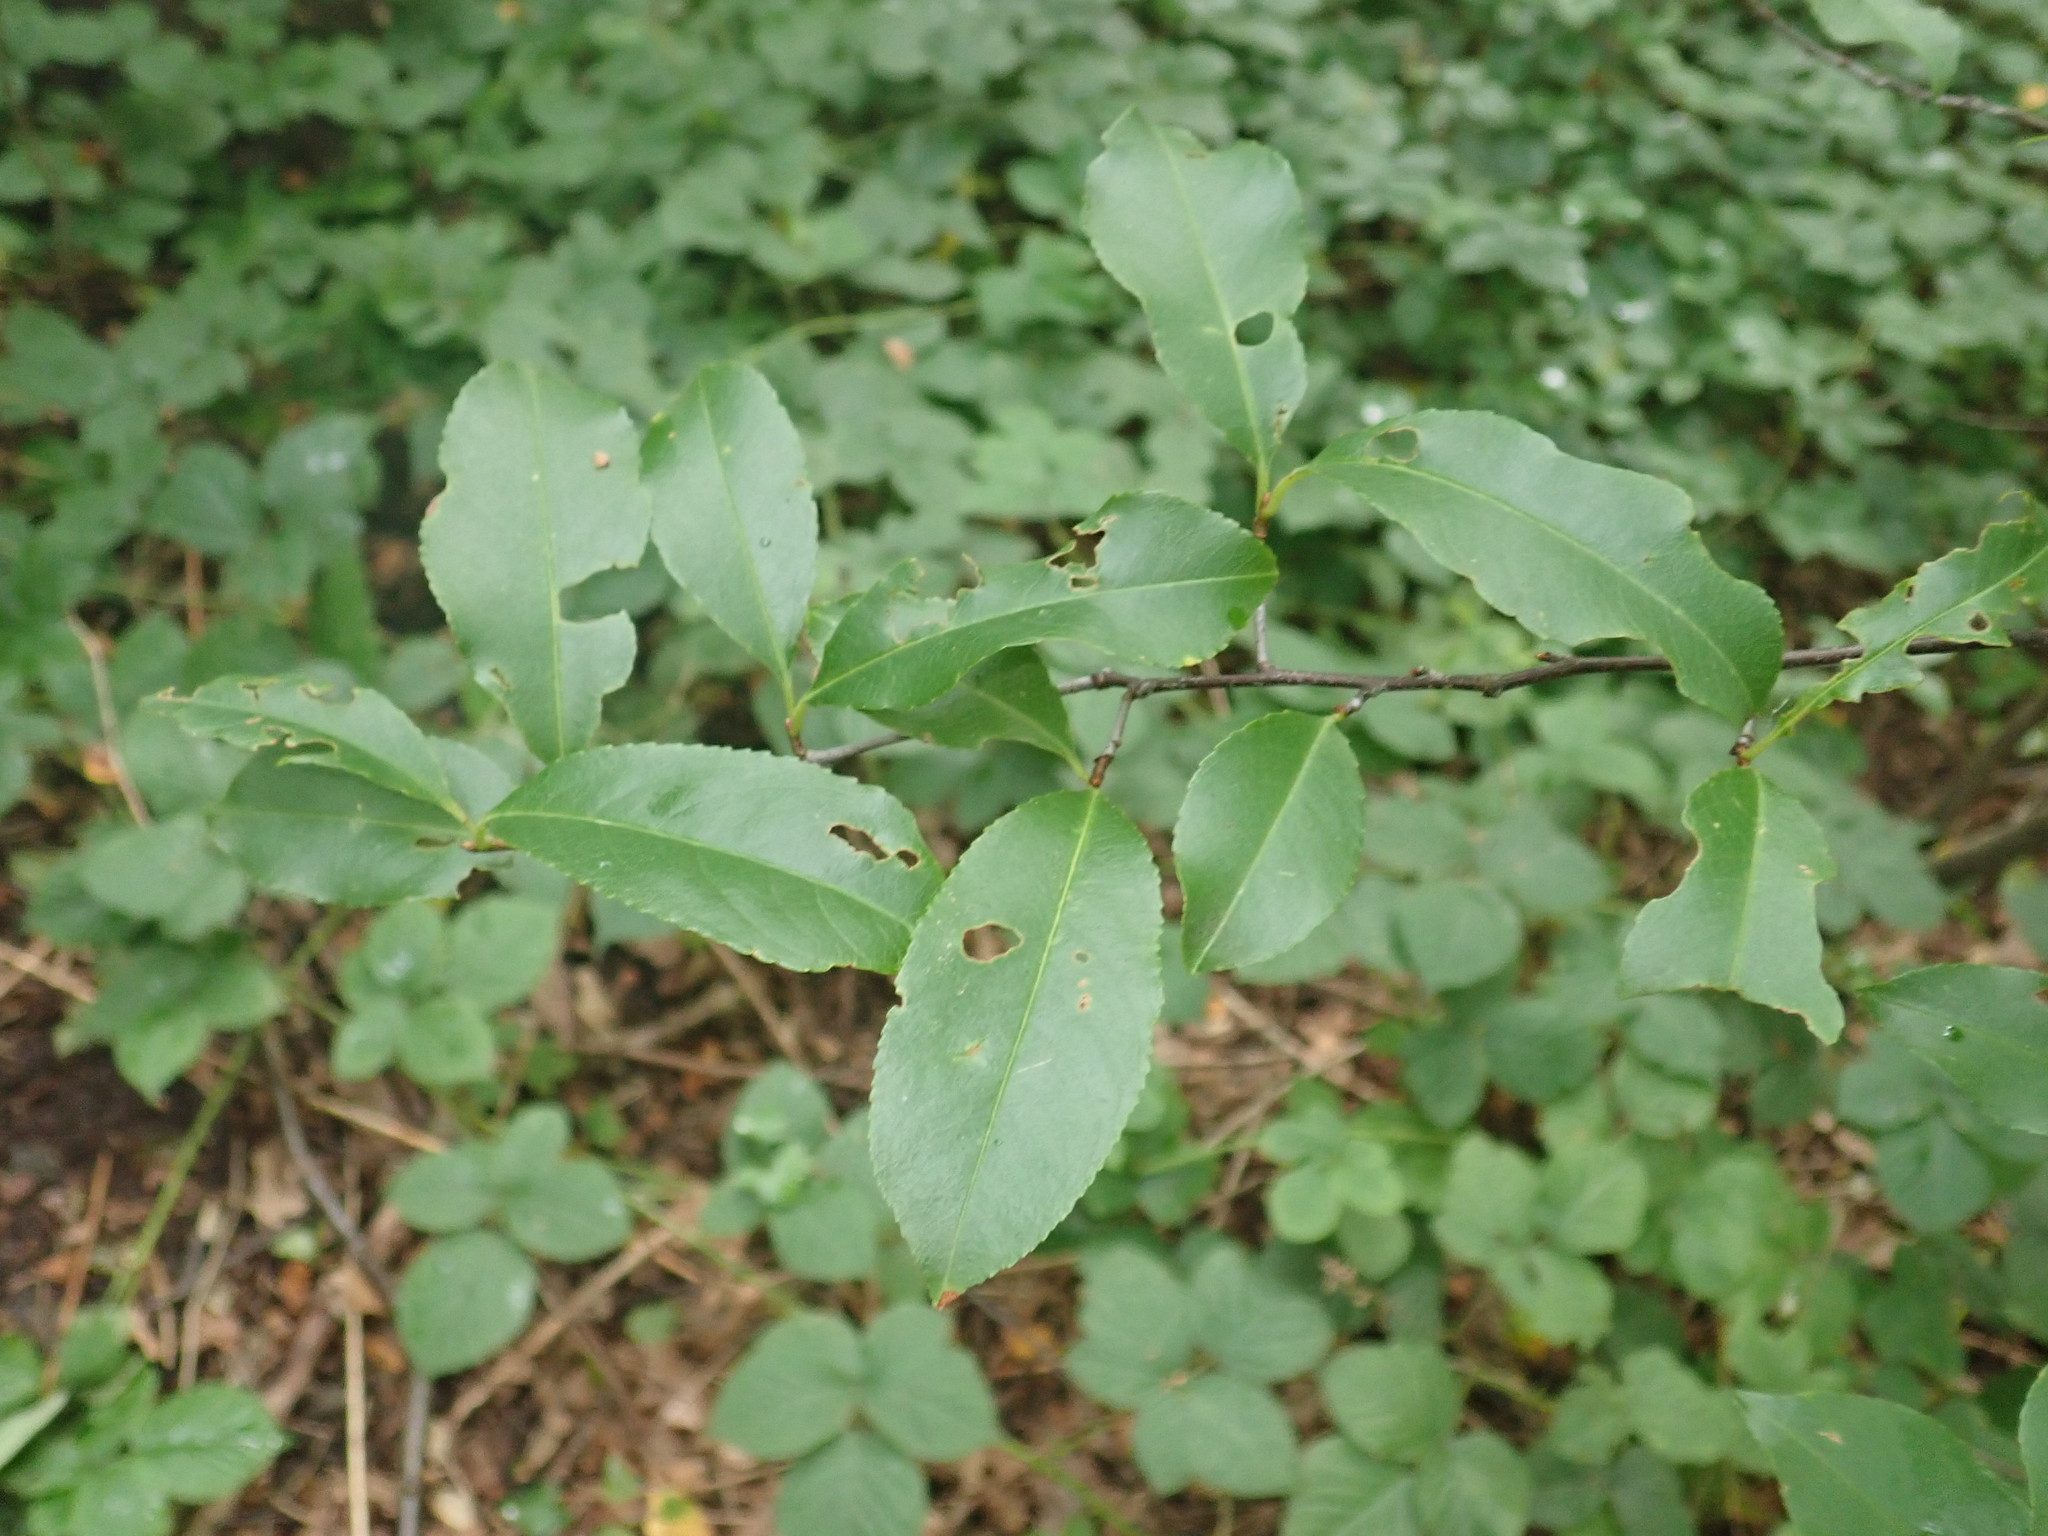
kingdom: Plantae
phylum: Tracheophyta
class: Magnoliopsida
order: Rosales
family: Rosaceae
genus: Prunus
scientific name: Prunus serotina
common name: Black cherry
